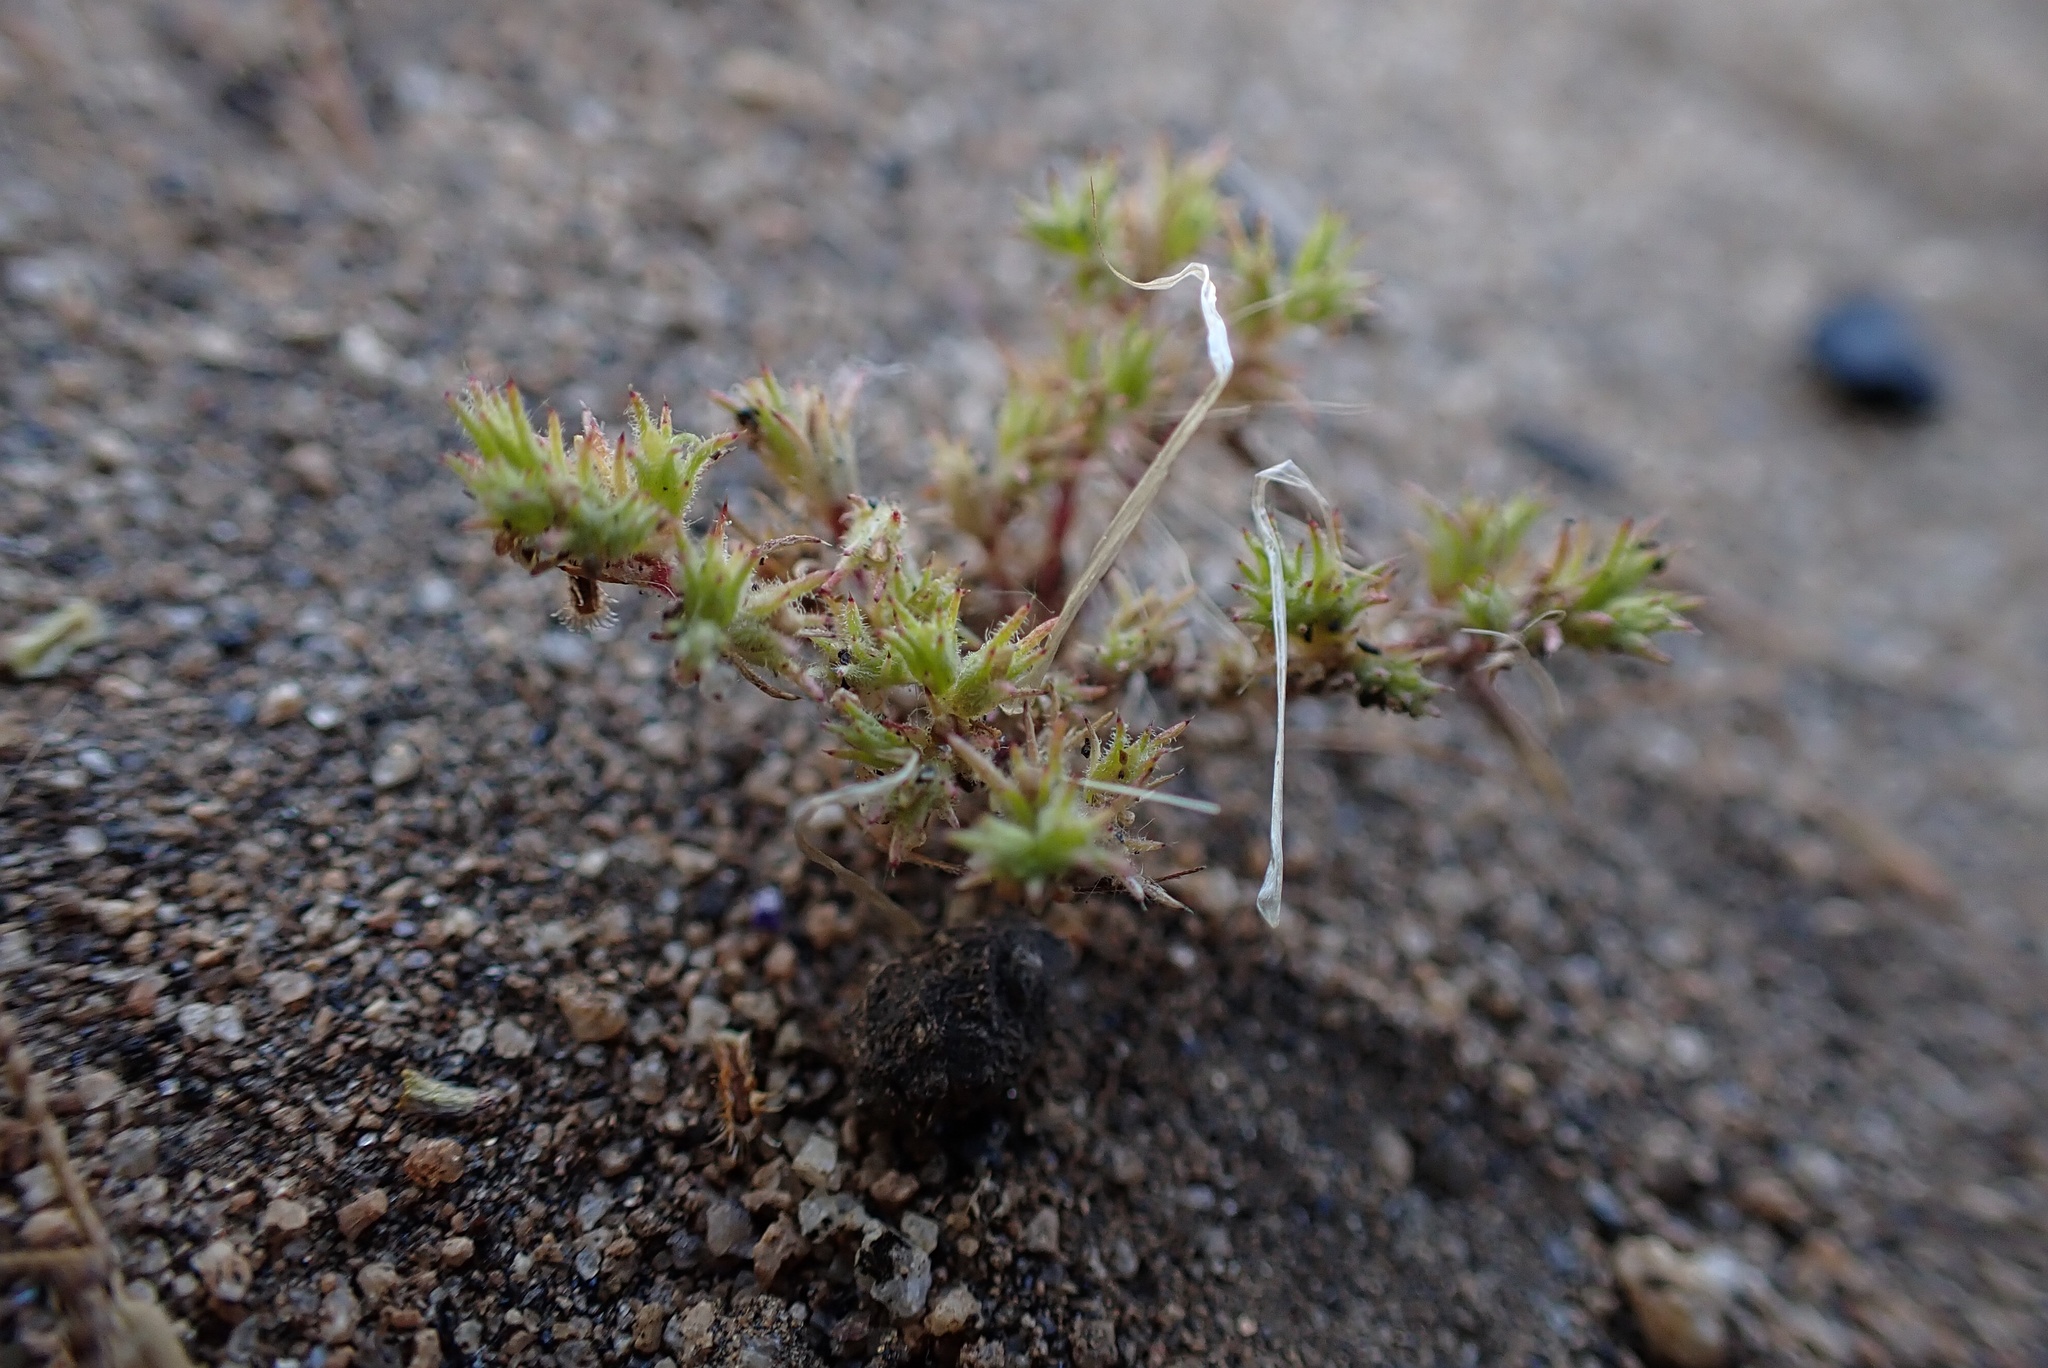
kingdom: Plantae
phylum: Tracheophyta
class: Magnoliopsida
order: Caryophyllales
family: Caryophyllaceae
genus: Loeflingia
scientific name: Loeflingia squarrosa
